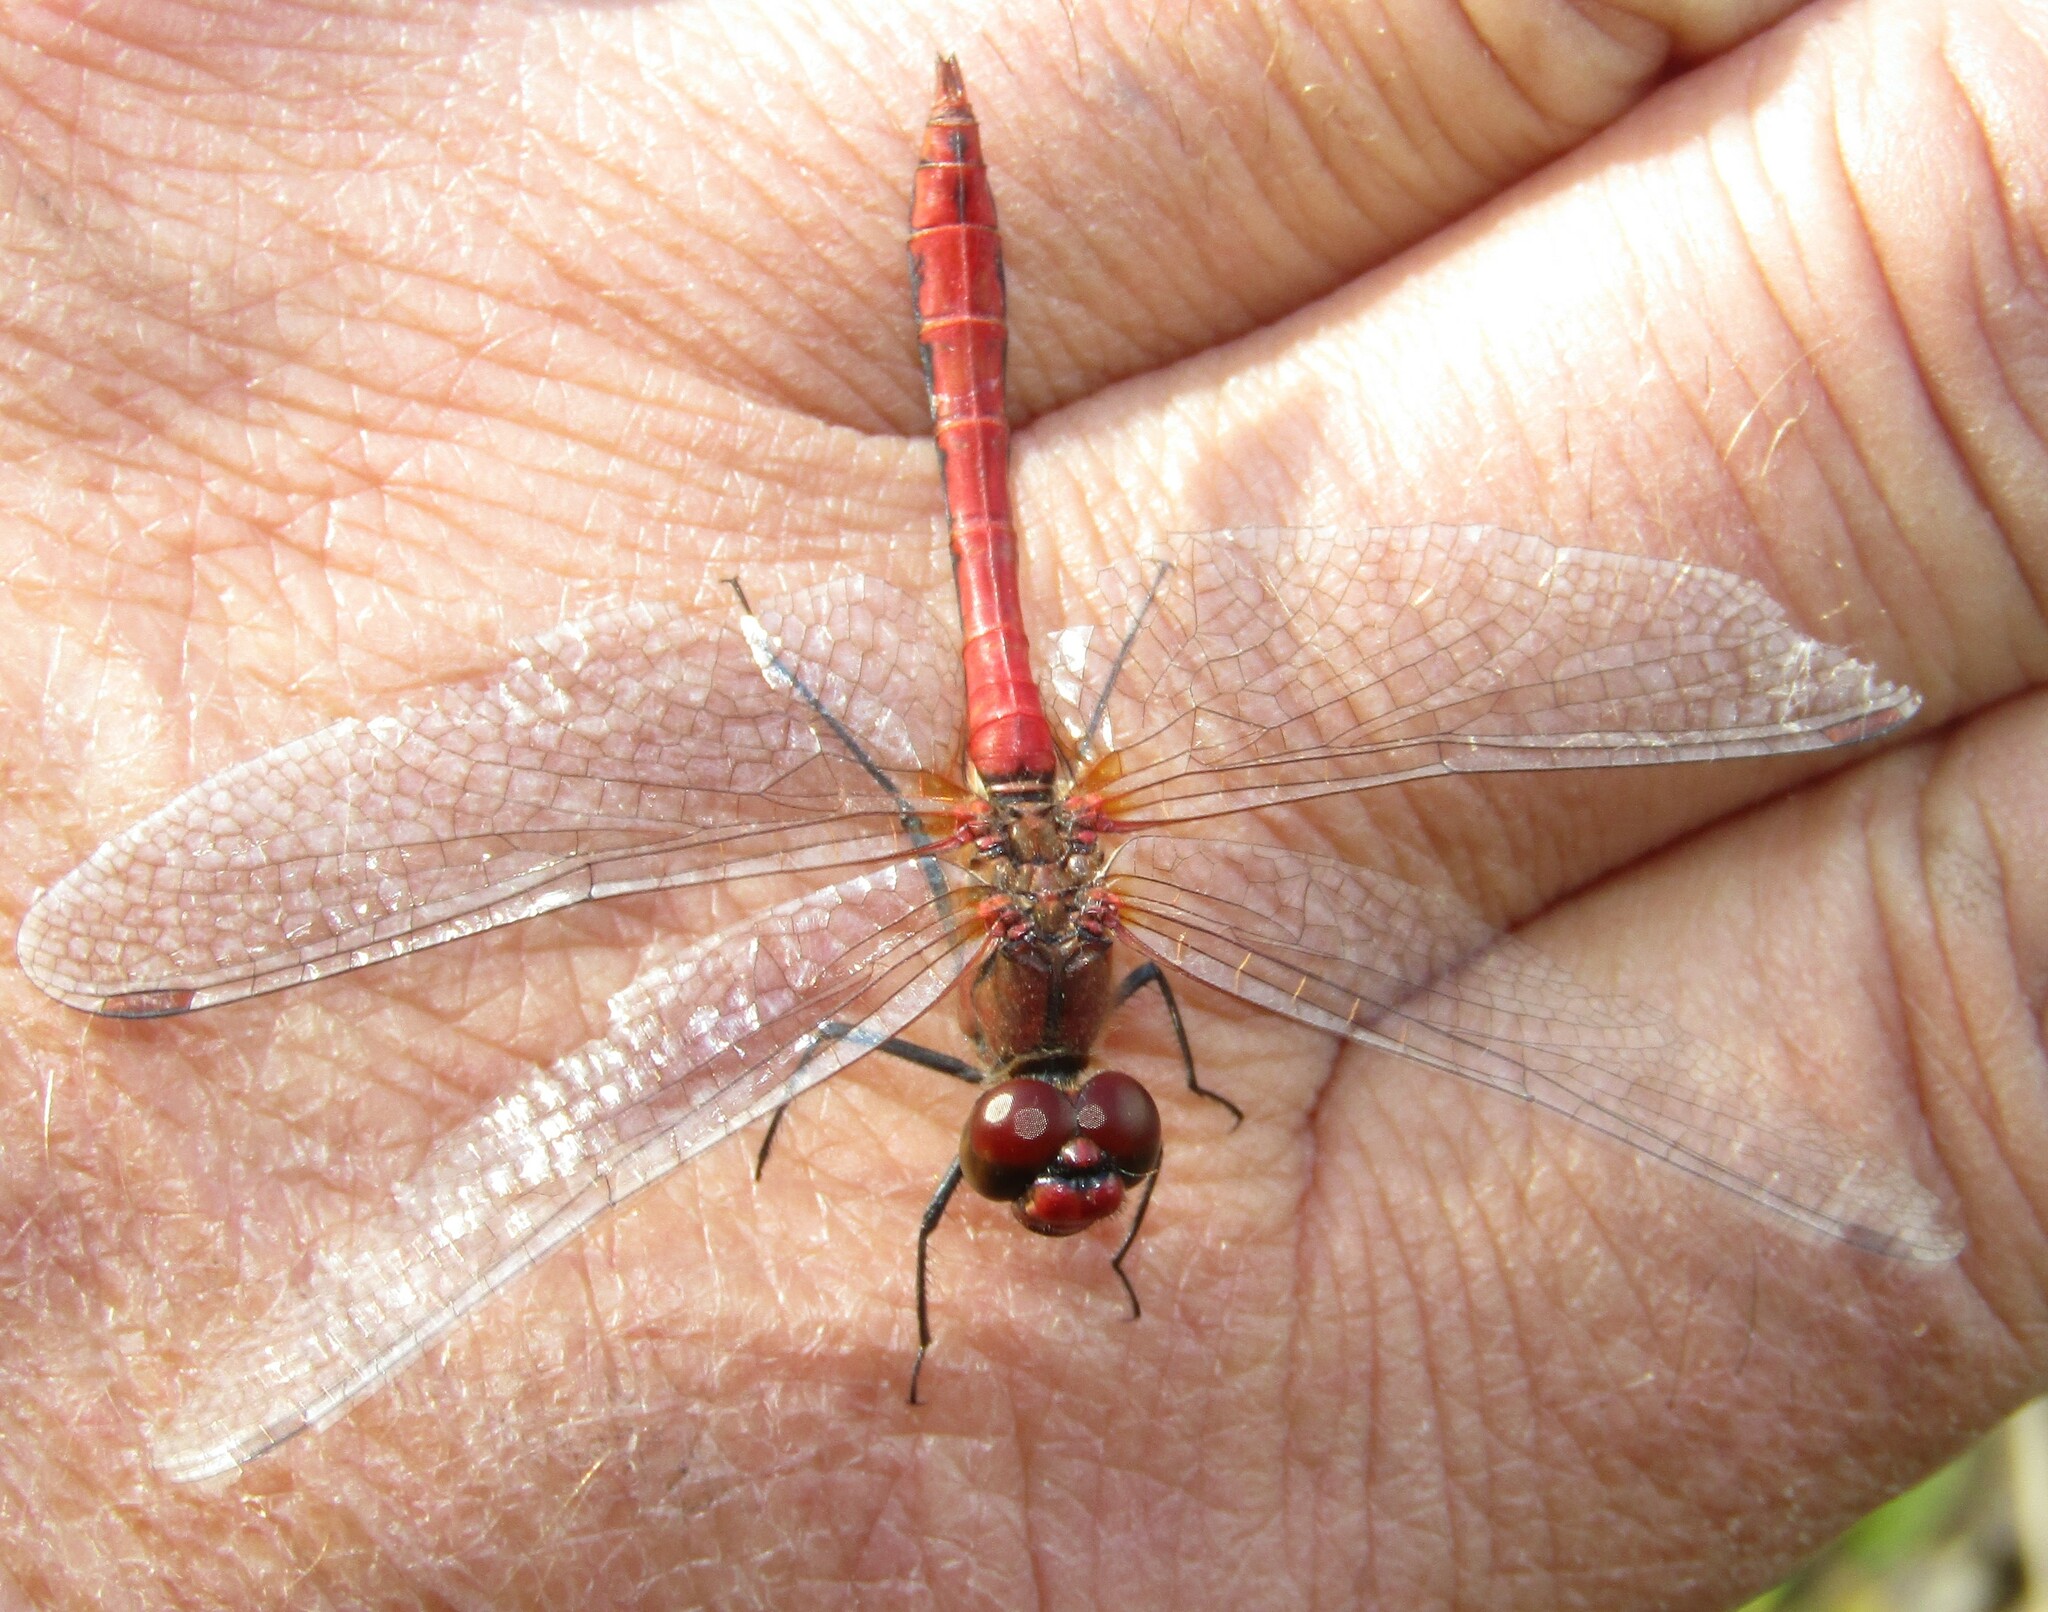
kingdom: Animalia
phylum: Arthropoda
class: Insecta
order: Odonata
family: Libellulidae
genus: Sympetrum
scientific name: Sympetrum sanguineum
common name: Ruddy darter
